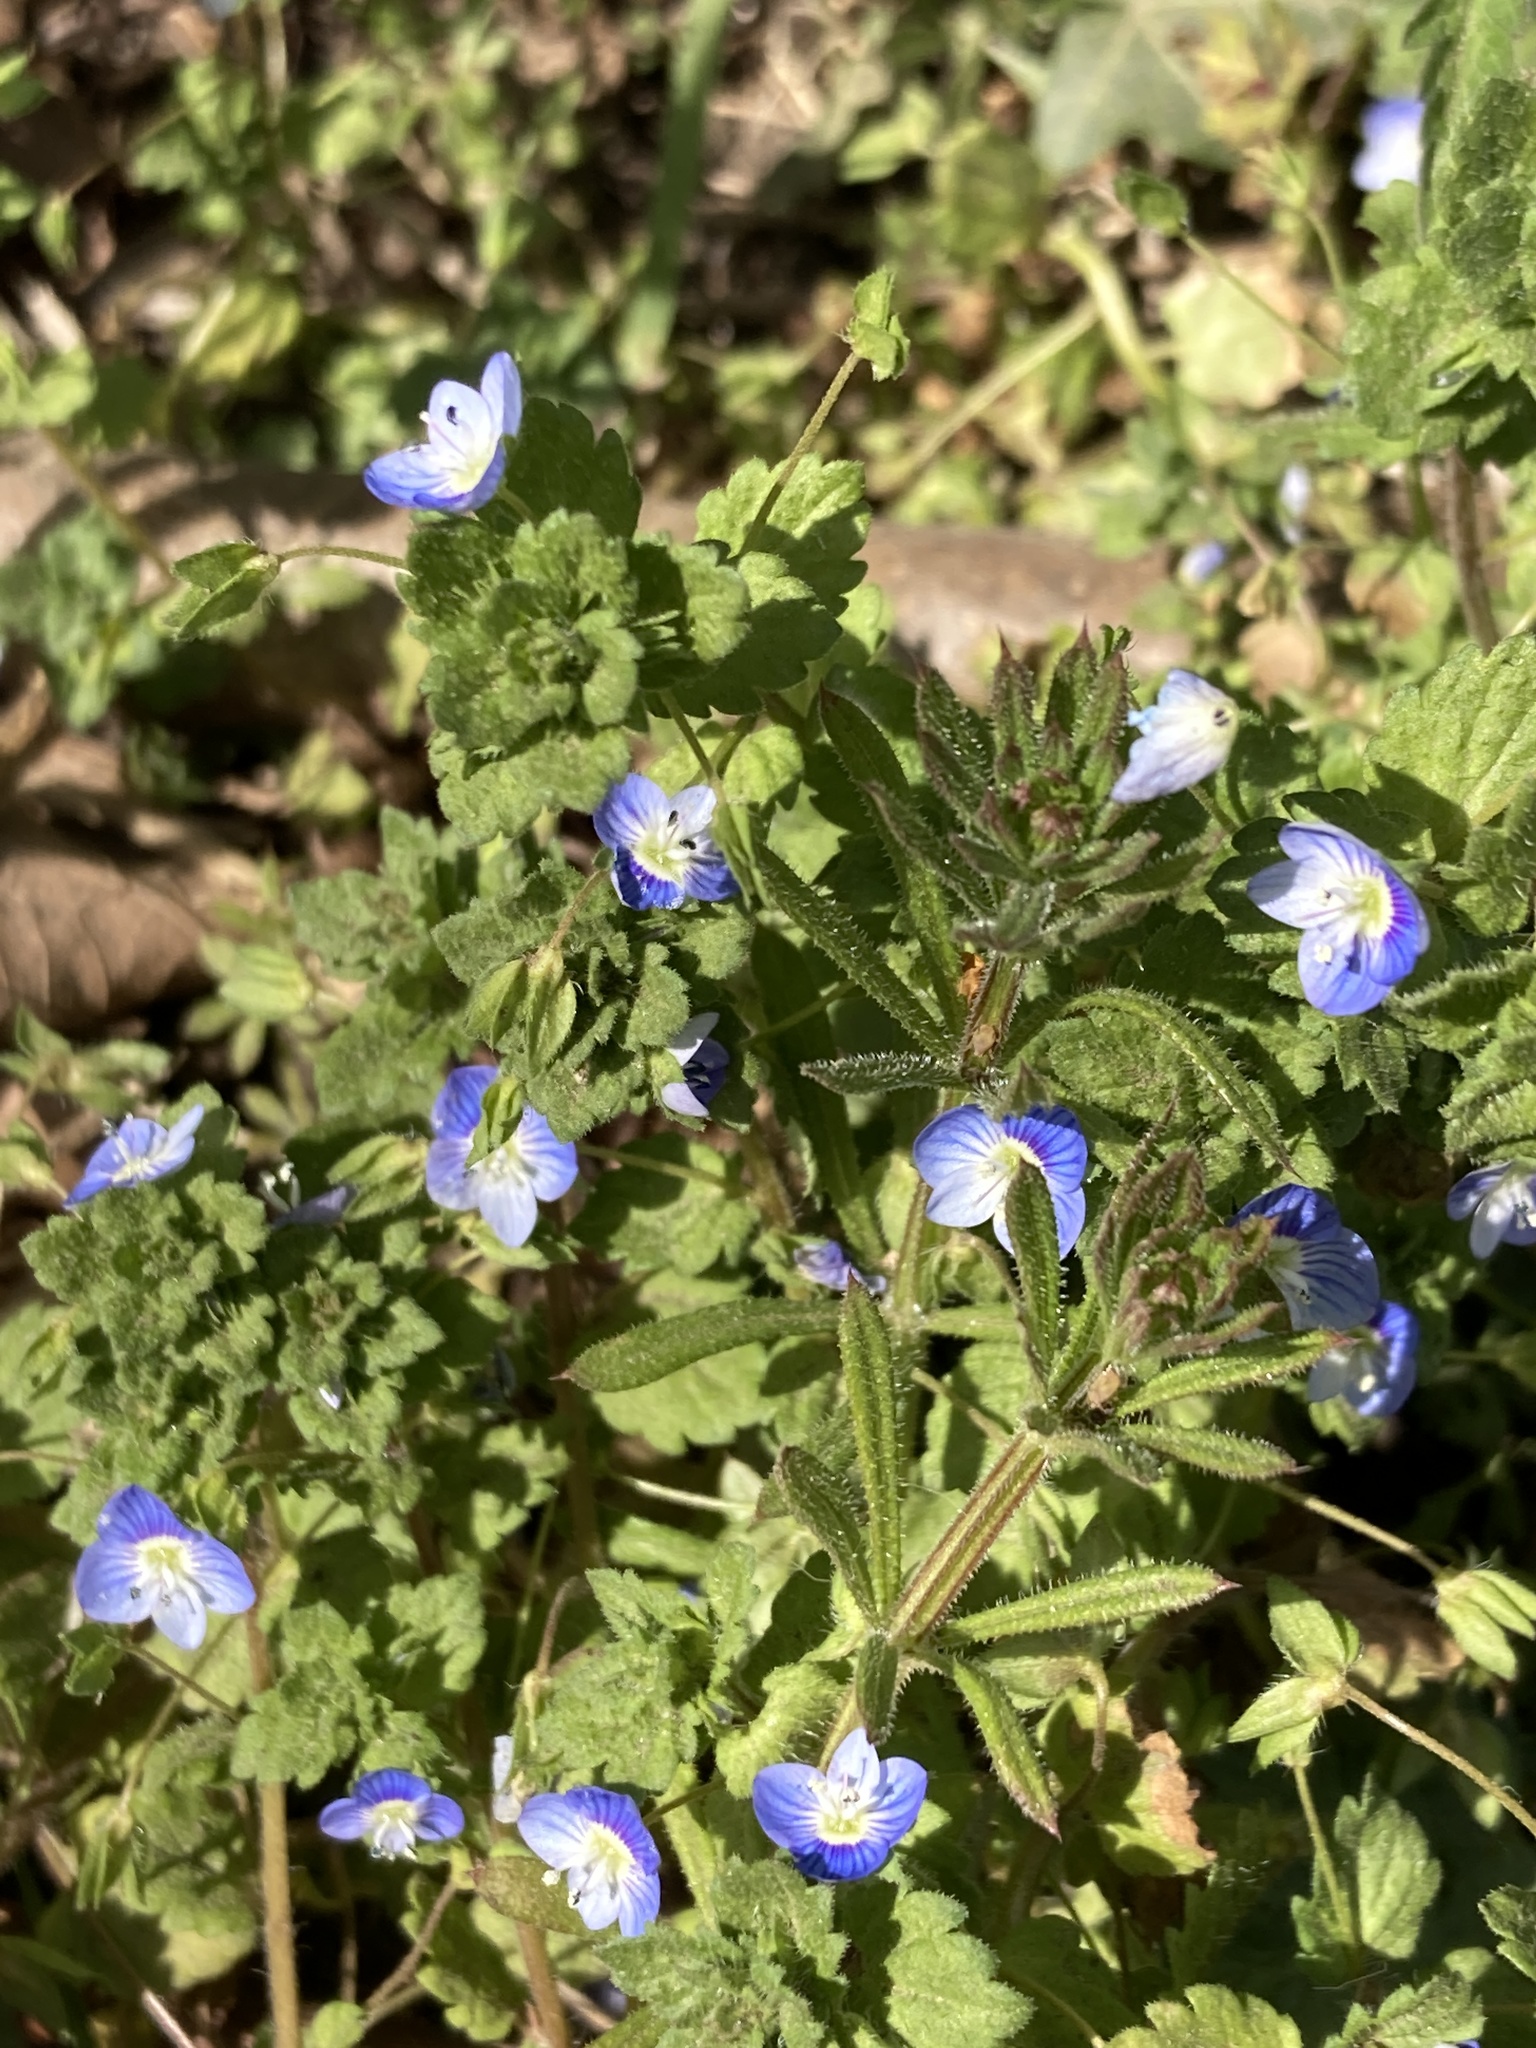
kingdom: Plantae
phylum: Tracheophyta
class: Magnoliopsida
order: Lamiales
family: Plantaginaceae
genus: Veronica
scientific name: Veronica persica
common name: Common field-speedwell
